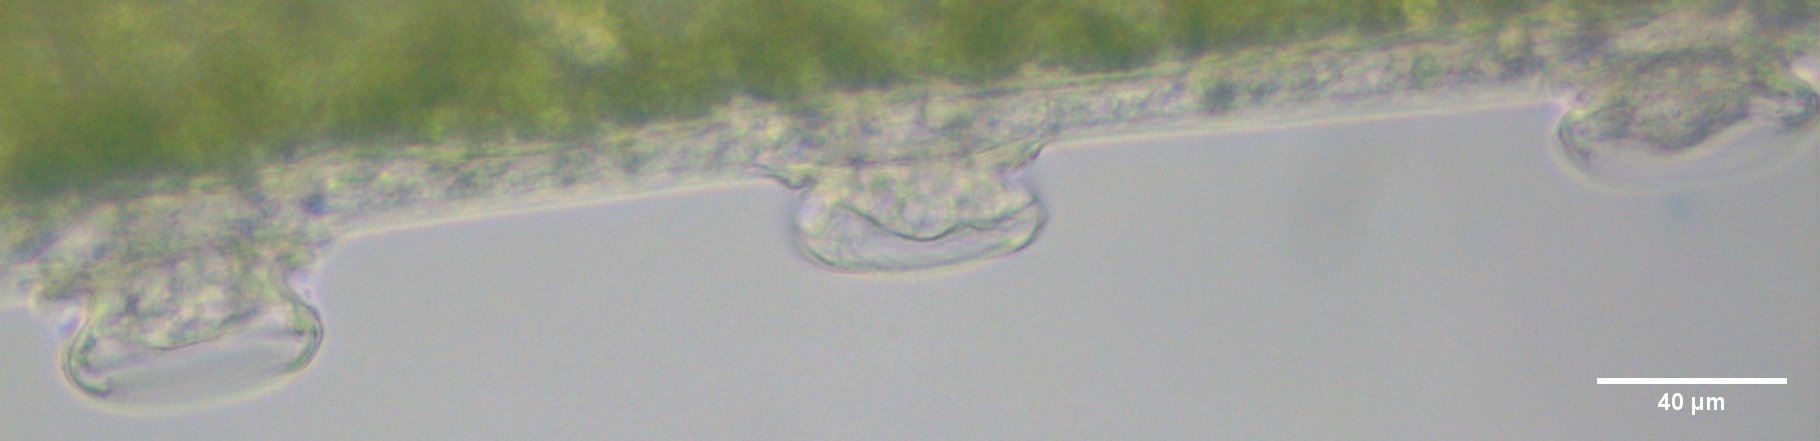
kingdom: Chromista
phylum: Ciliophora
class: Oligohymenophorea
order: Peritrichida
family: Trichodinidae
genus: Trichodina
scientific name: Trichodina pediculus
